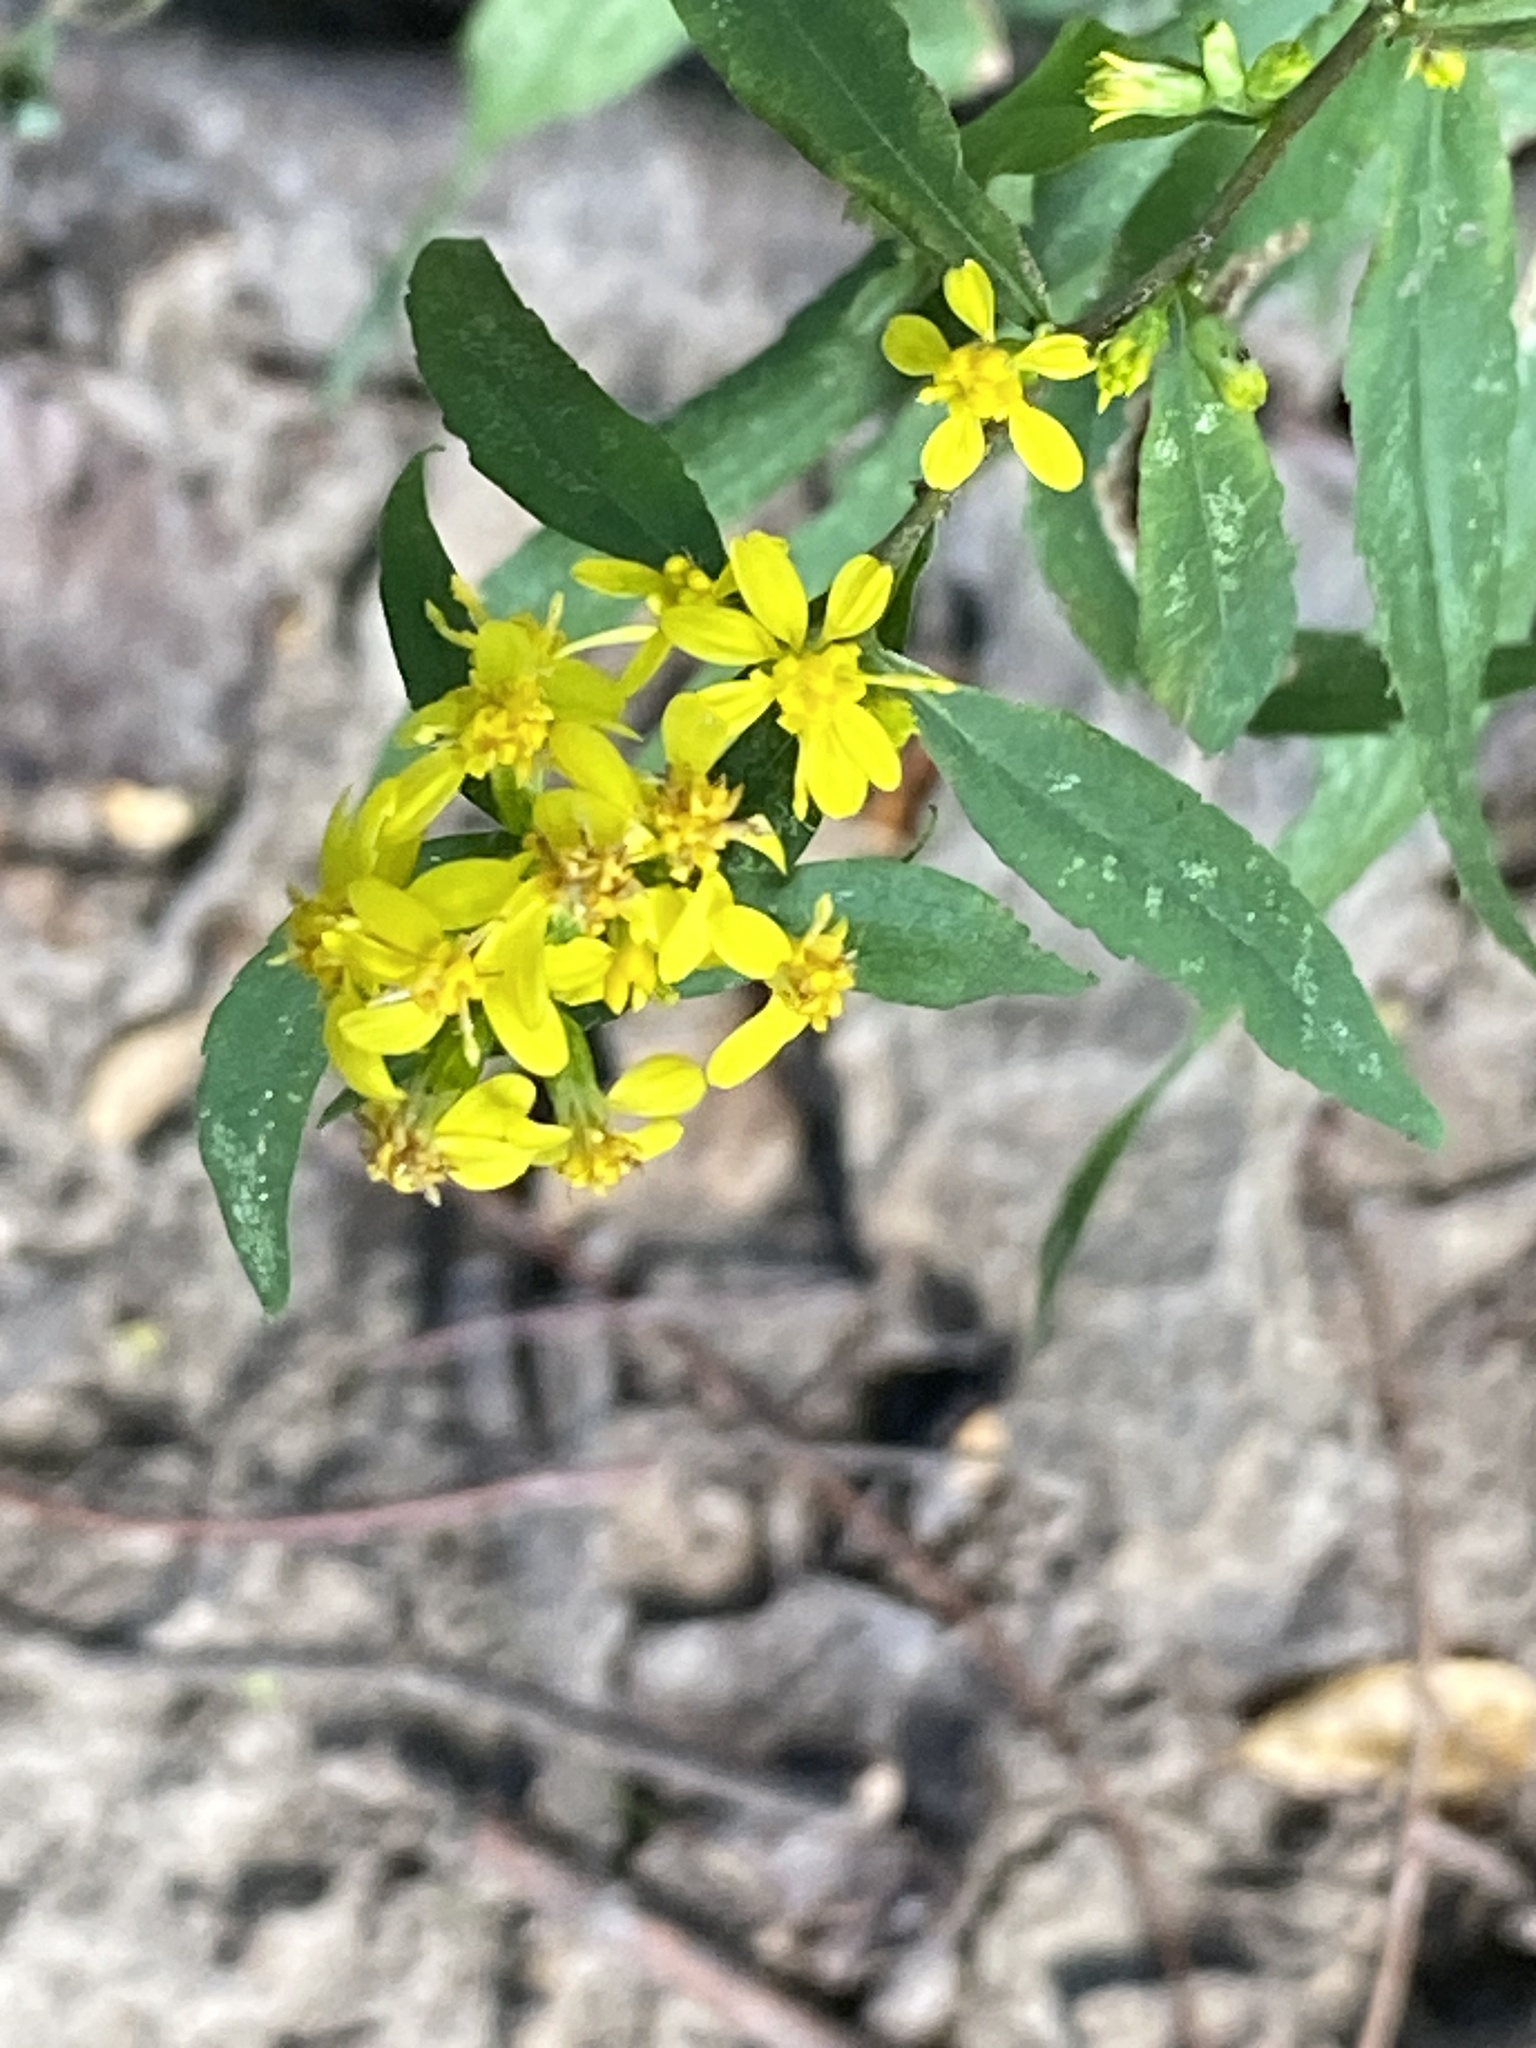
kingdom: Plantae
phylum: Tracheophyta
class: Magnoliopsida
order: Asterales
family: Asteraceae
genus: Solidago
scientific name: Solidago caesia
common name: Woodland goldenrod
